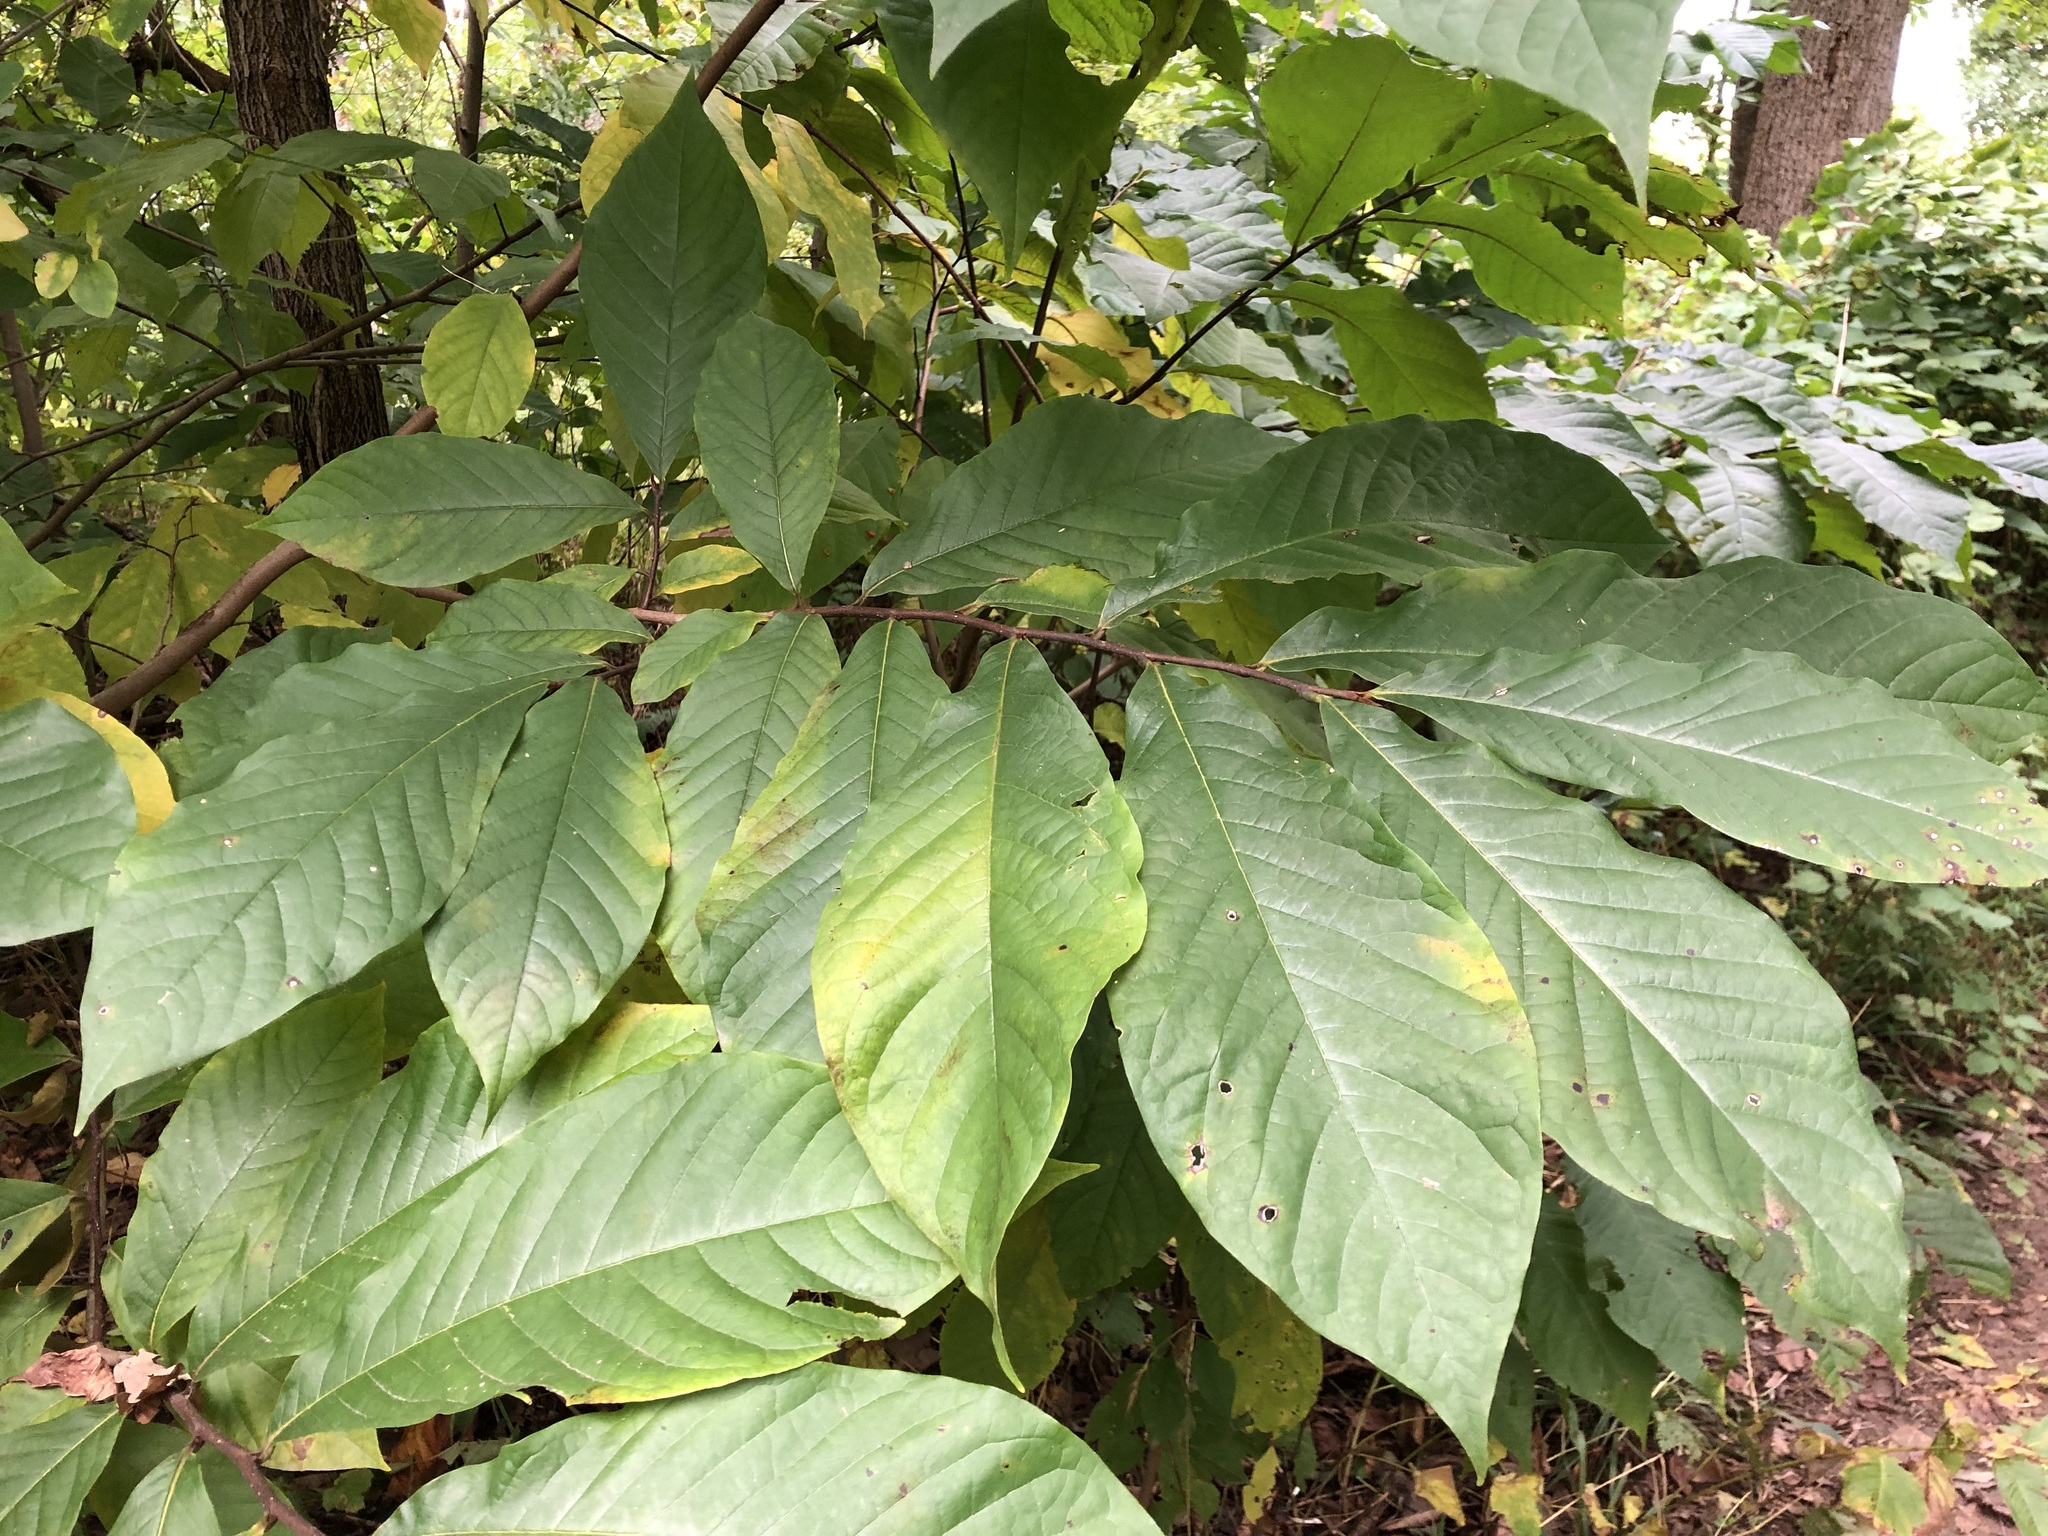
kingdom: Plantae
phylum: Tracheophyta
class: Magnoliopsida
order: Magnoliales
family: Annonaceae
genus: Asimina
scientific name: Asimina triloba
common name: Dog-banana
